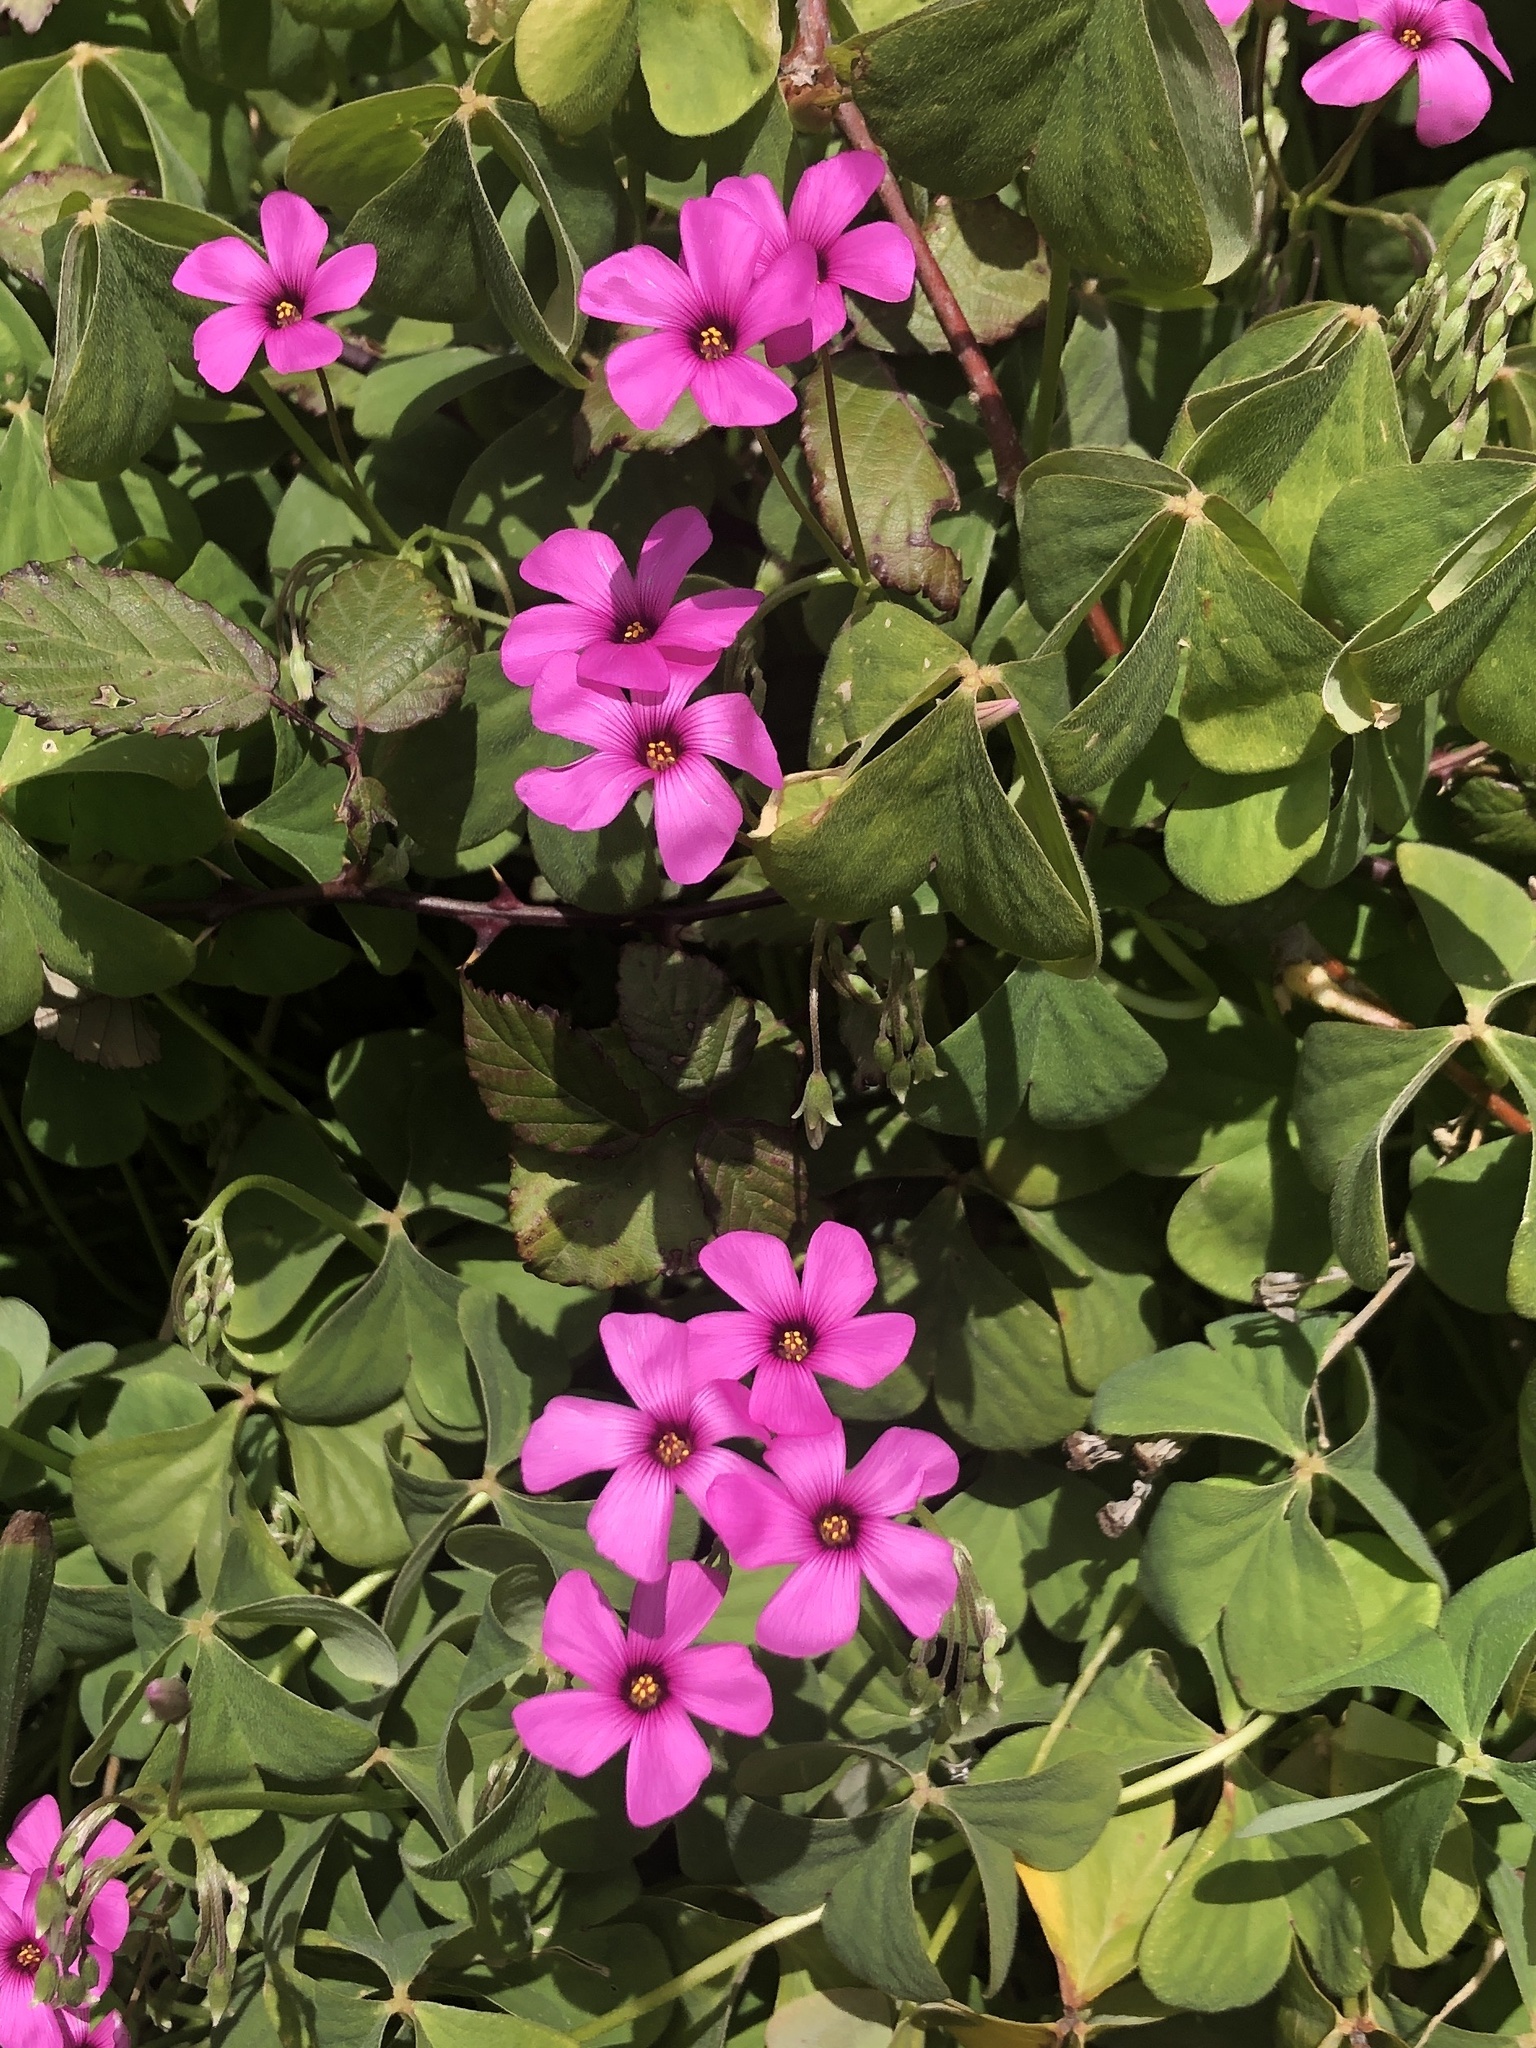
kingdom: Plantae
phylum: Tracheophyta
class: Magnoliopsida
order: Oxalidales
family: Oxalidaceae
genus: Oxalis
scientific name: Oxalis articulata
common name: Pink-sorrel
